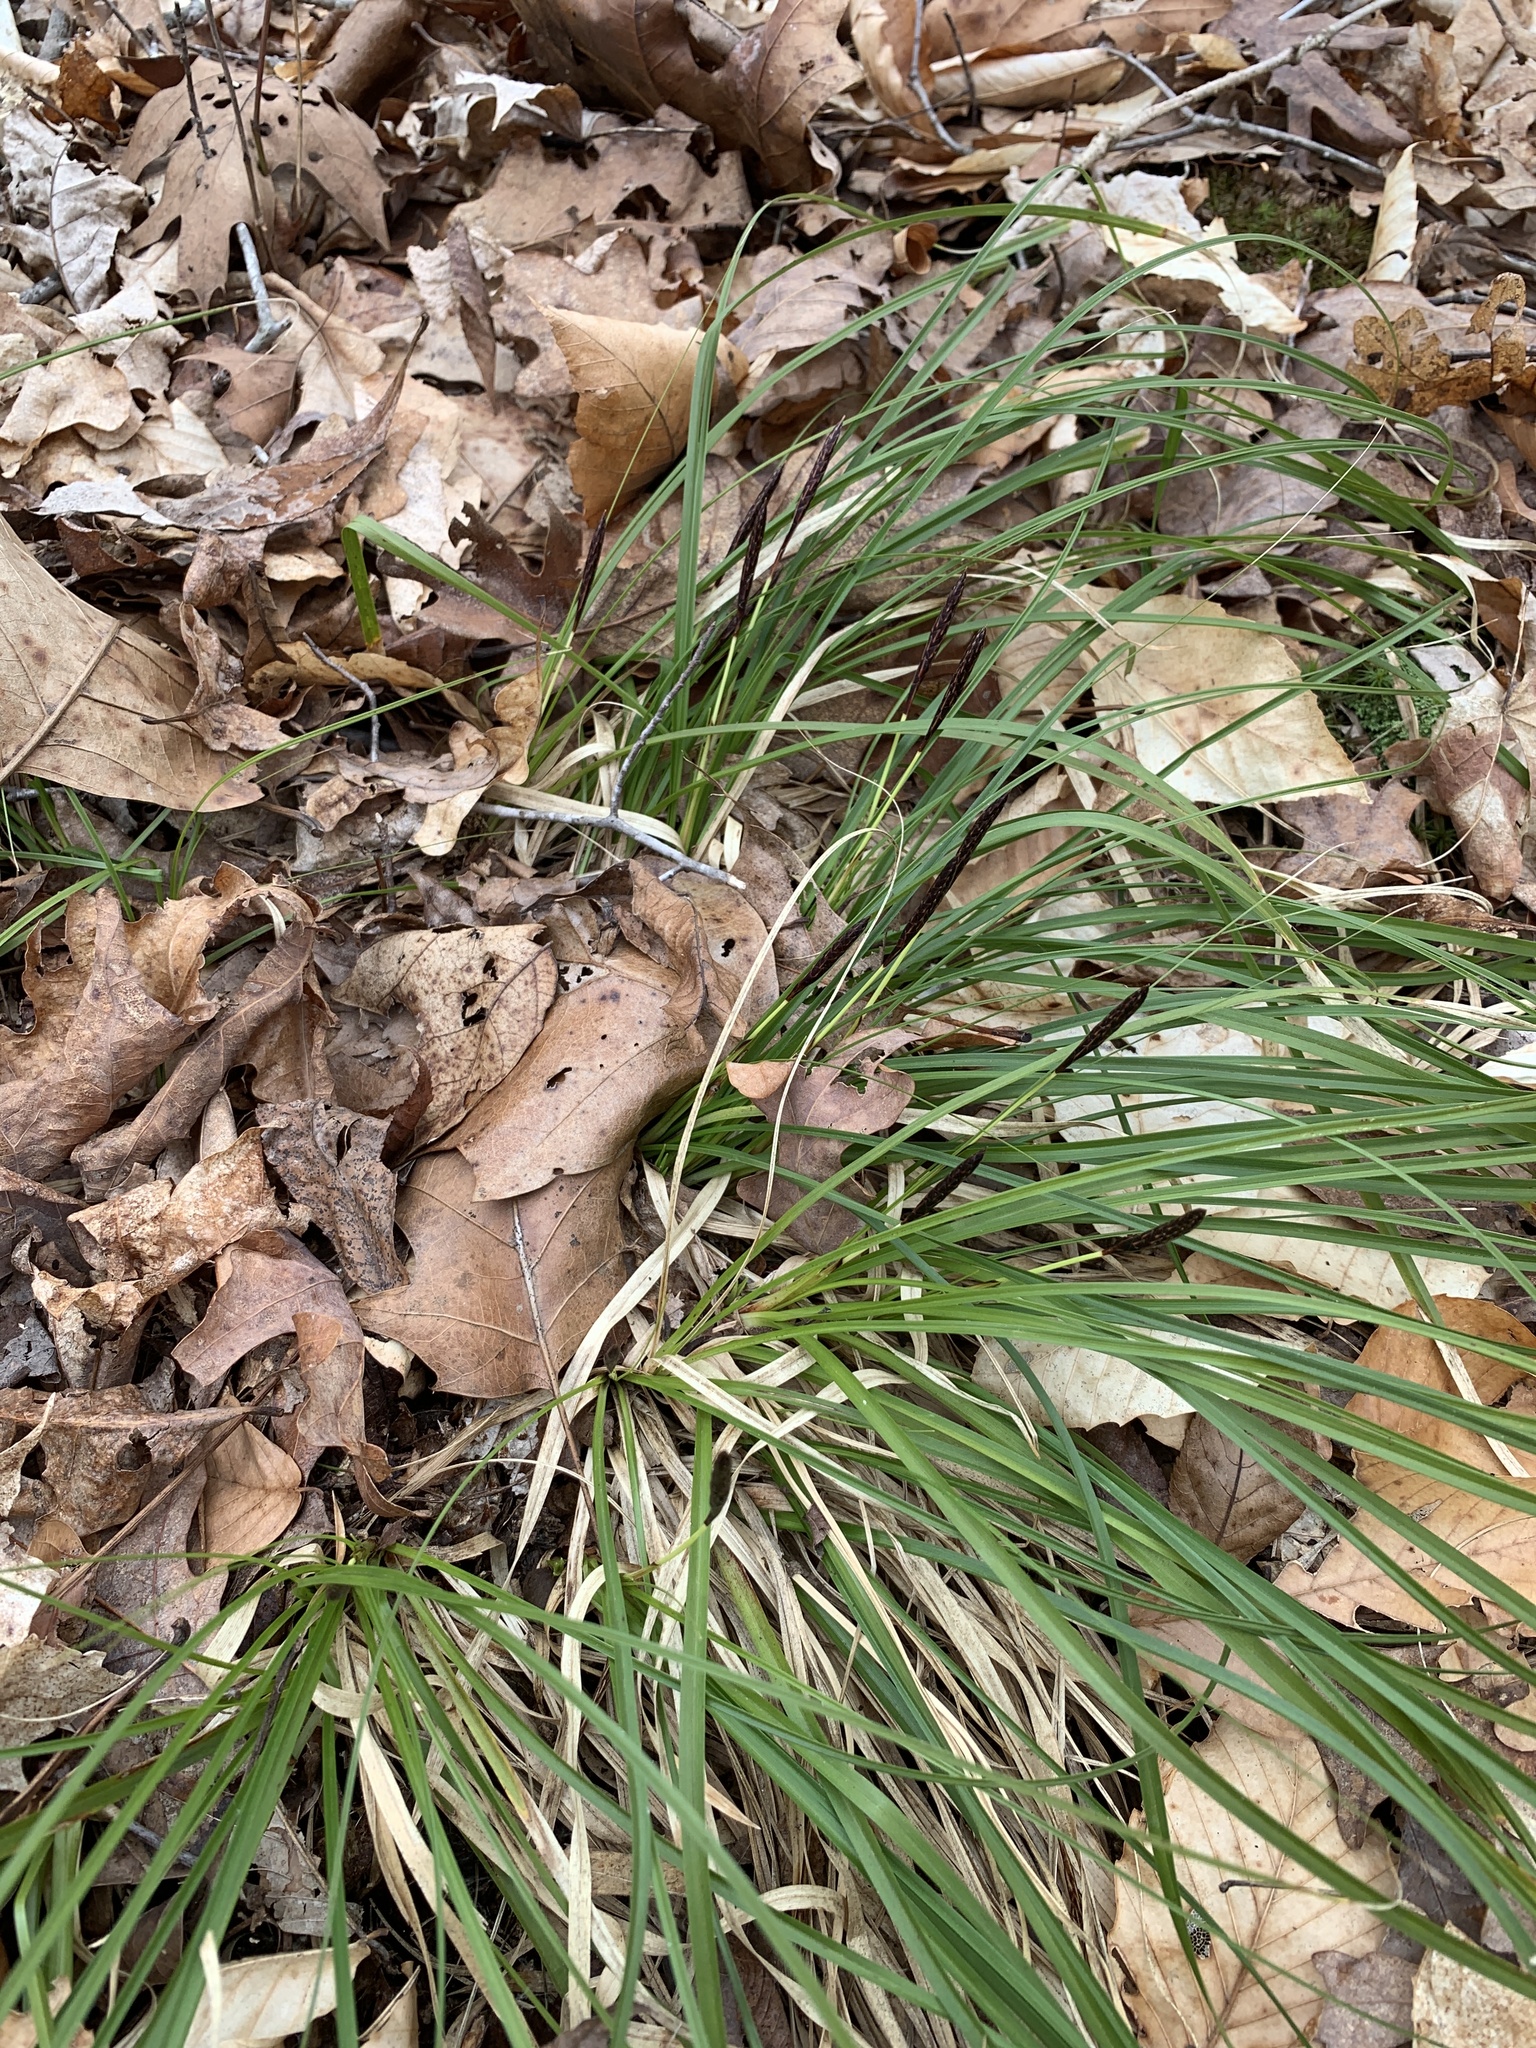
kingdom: Plantae
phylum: Tracheophyta
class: Liliopsida
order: Poales
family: Cyperaceae
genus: Carex
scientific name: Carex picta
